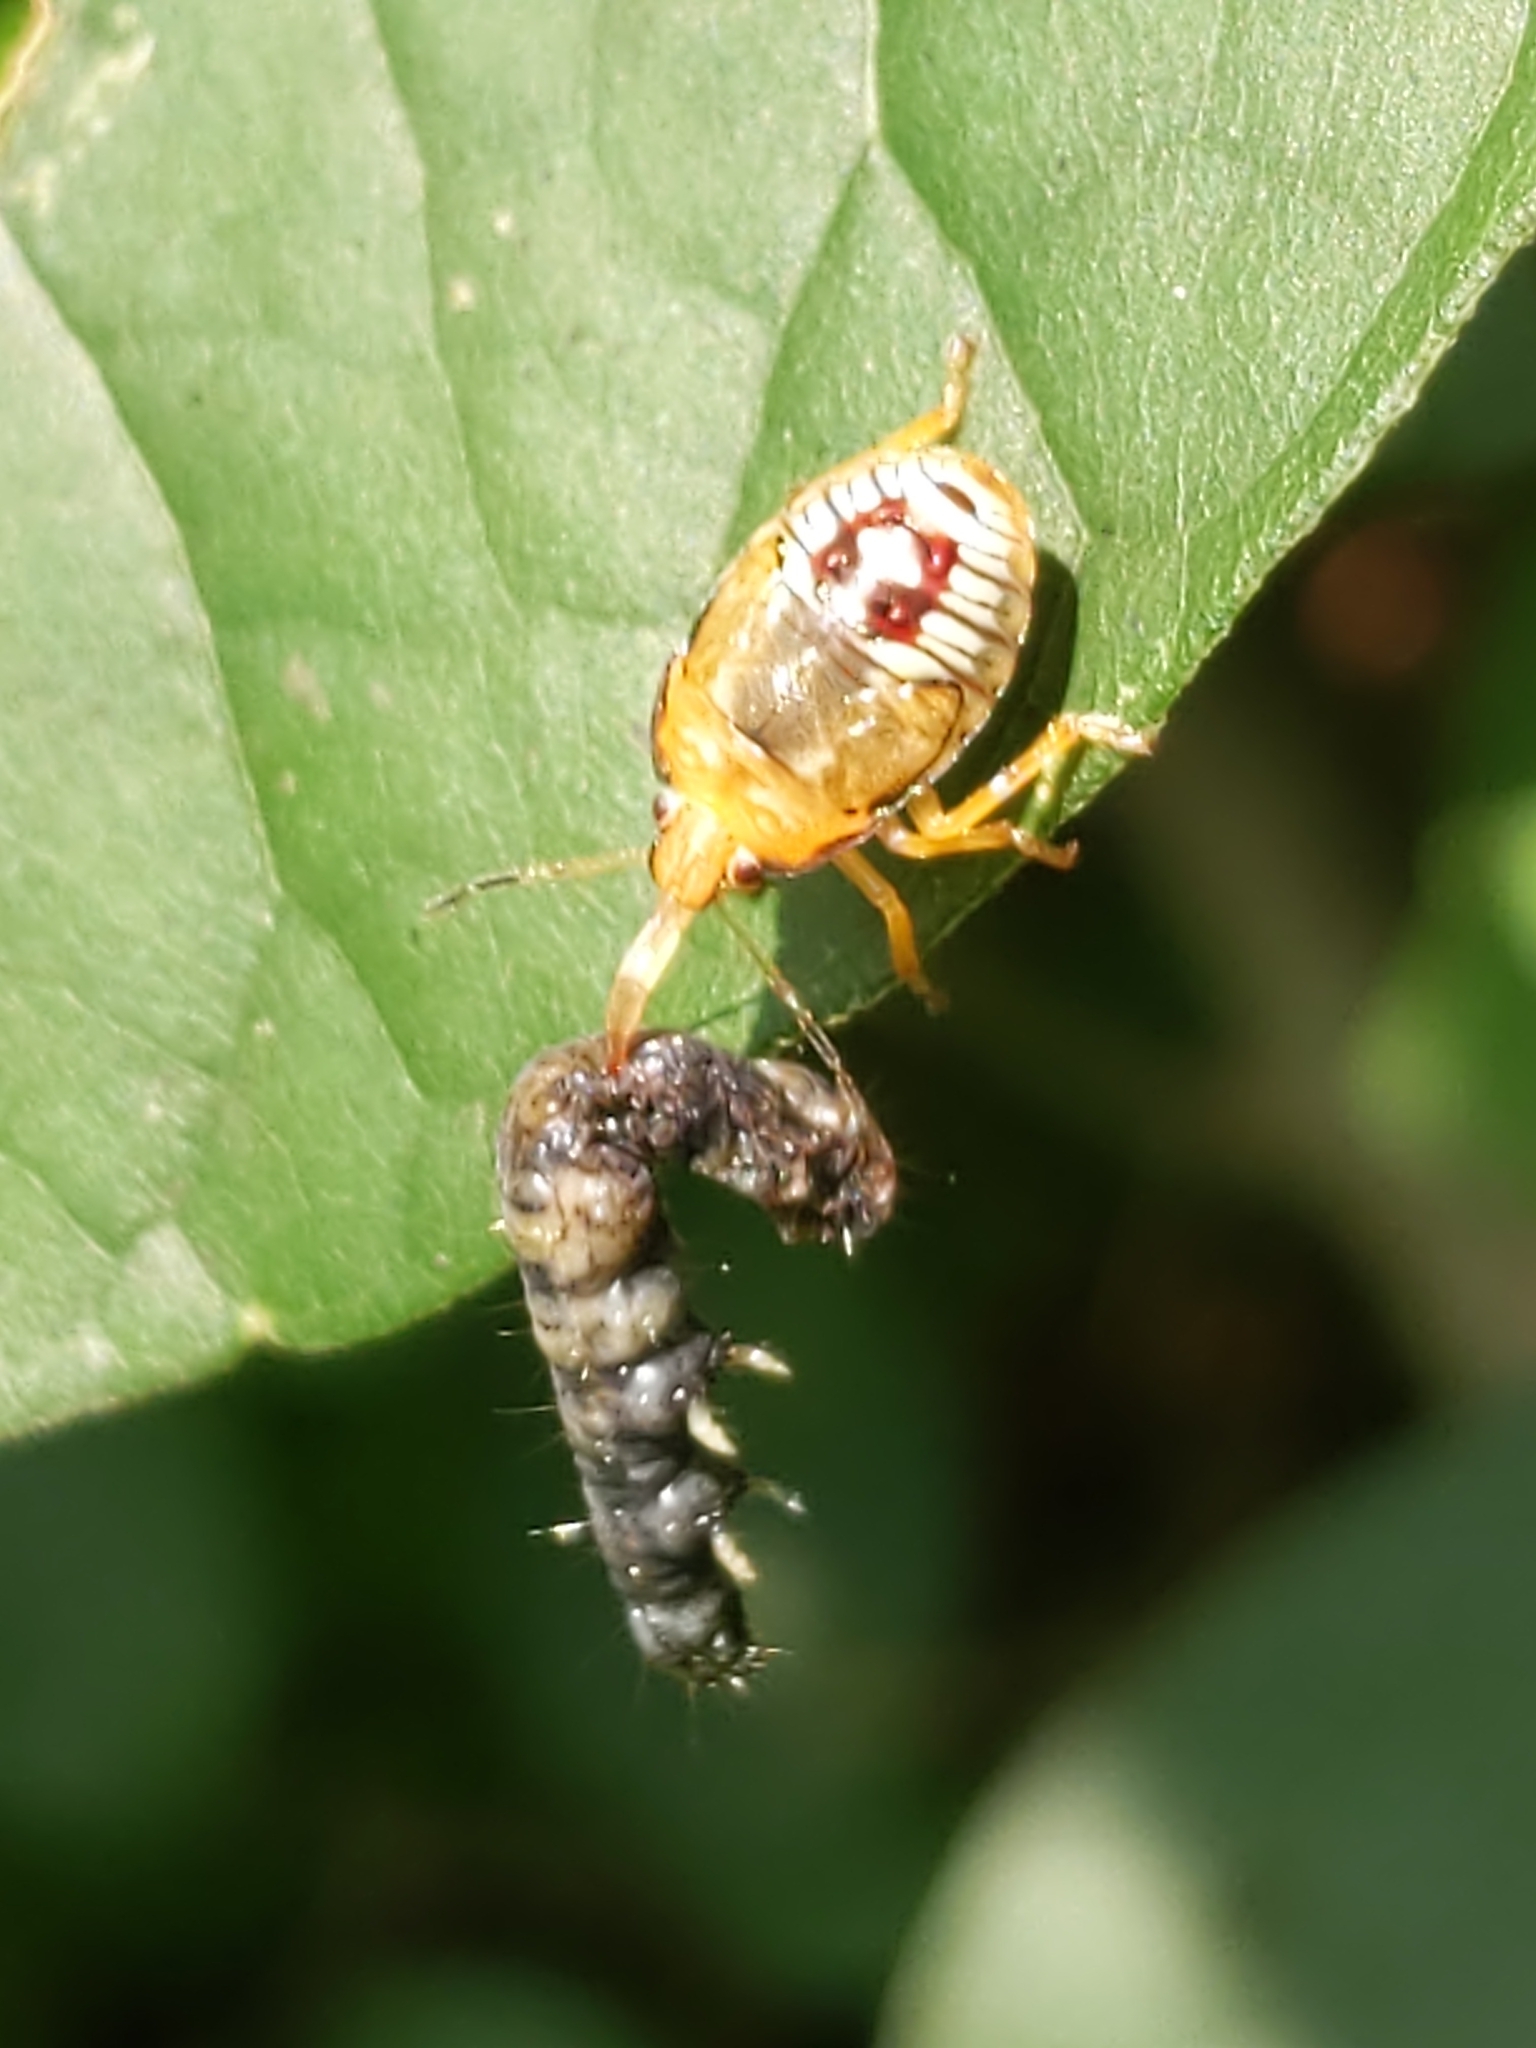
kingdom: Animalia
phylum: Arthropoda
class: Insecta
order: Hemiptera
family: Pentatomidae
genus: Podisus
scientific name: Podisus maculiventris
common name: Spined soldier bug
